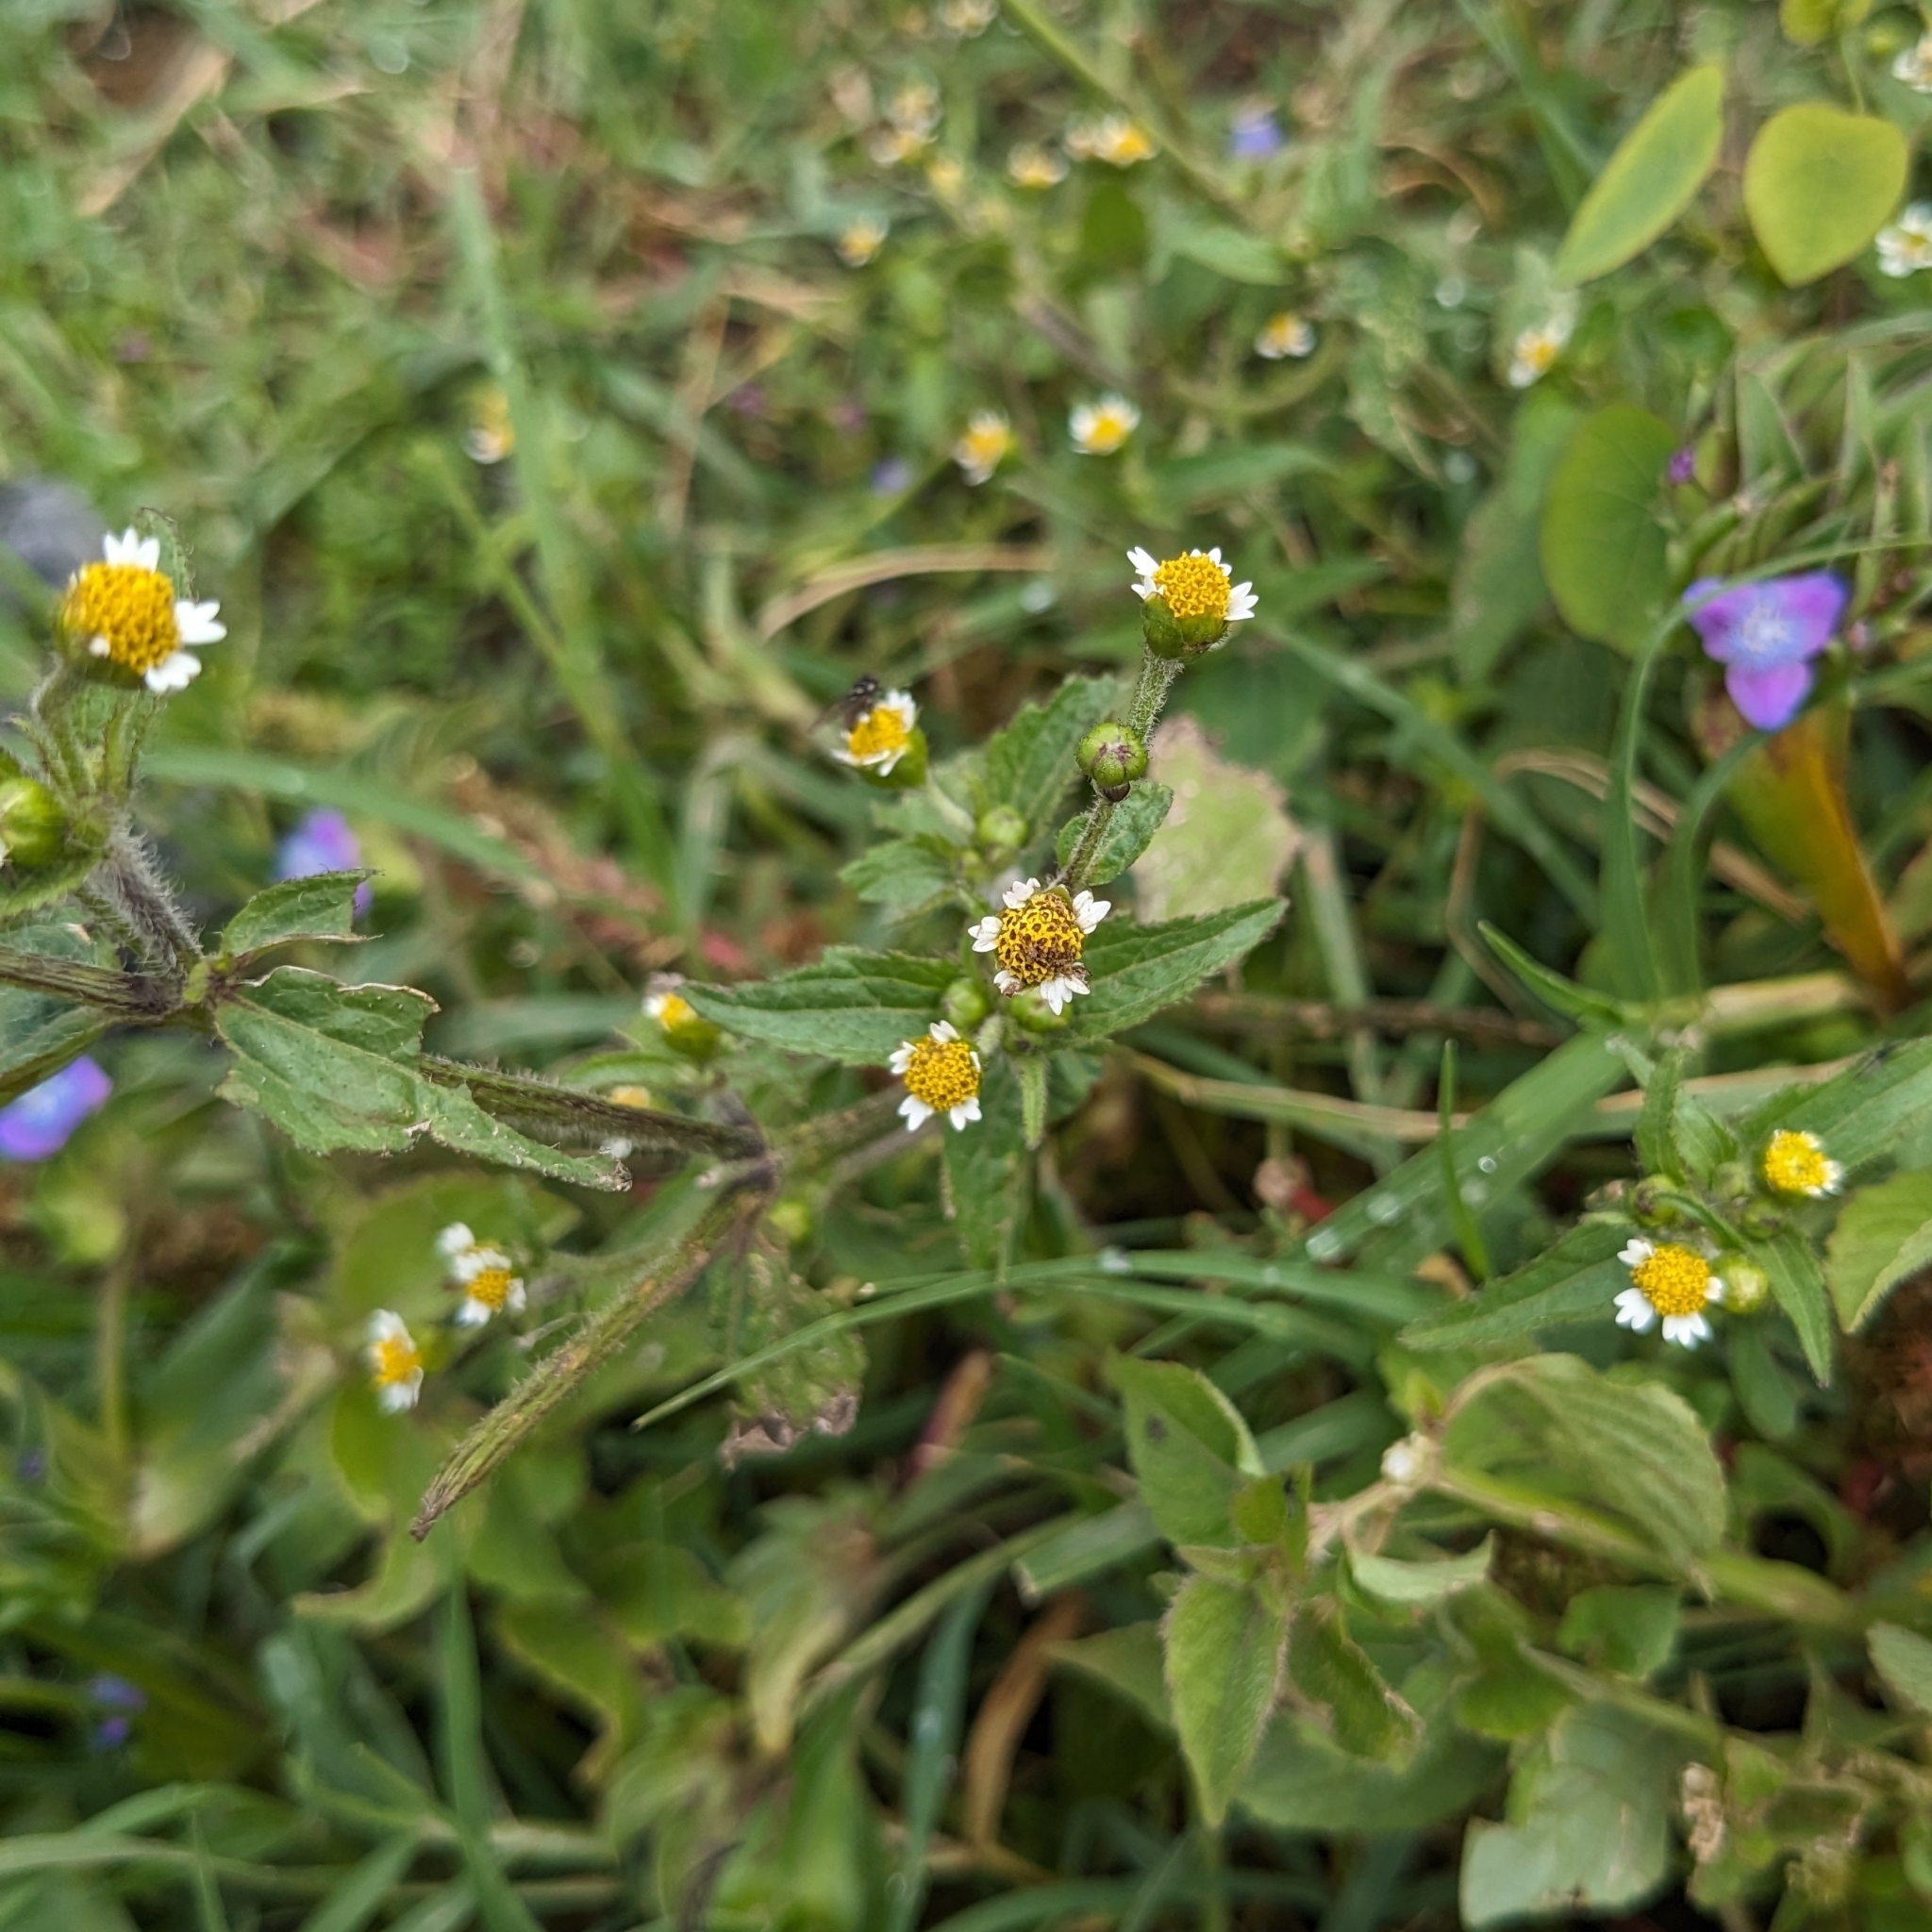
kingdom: Plantae
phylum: Tracheophyta
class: Magnoliopsida
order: Asterales
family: Asteraceae
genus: Galinsoga
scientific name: Galinsoga quadriradiata
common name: Shaggy soldier
